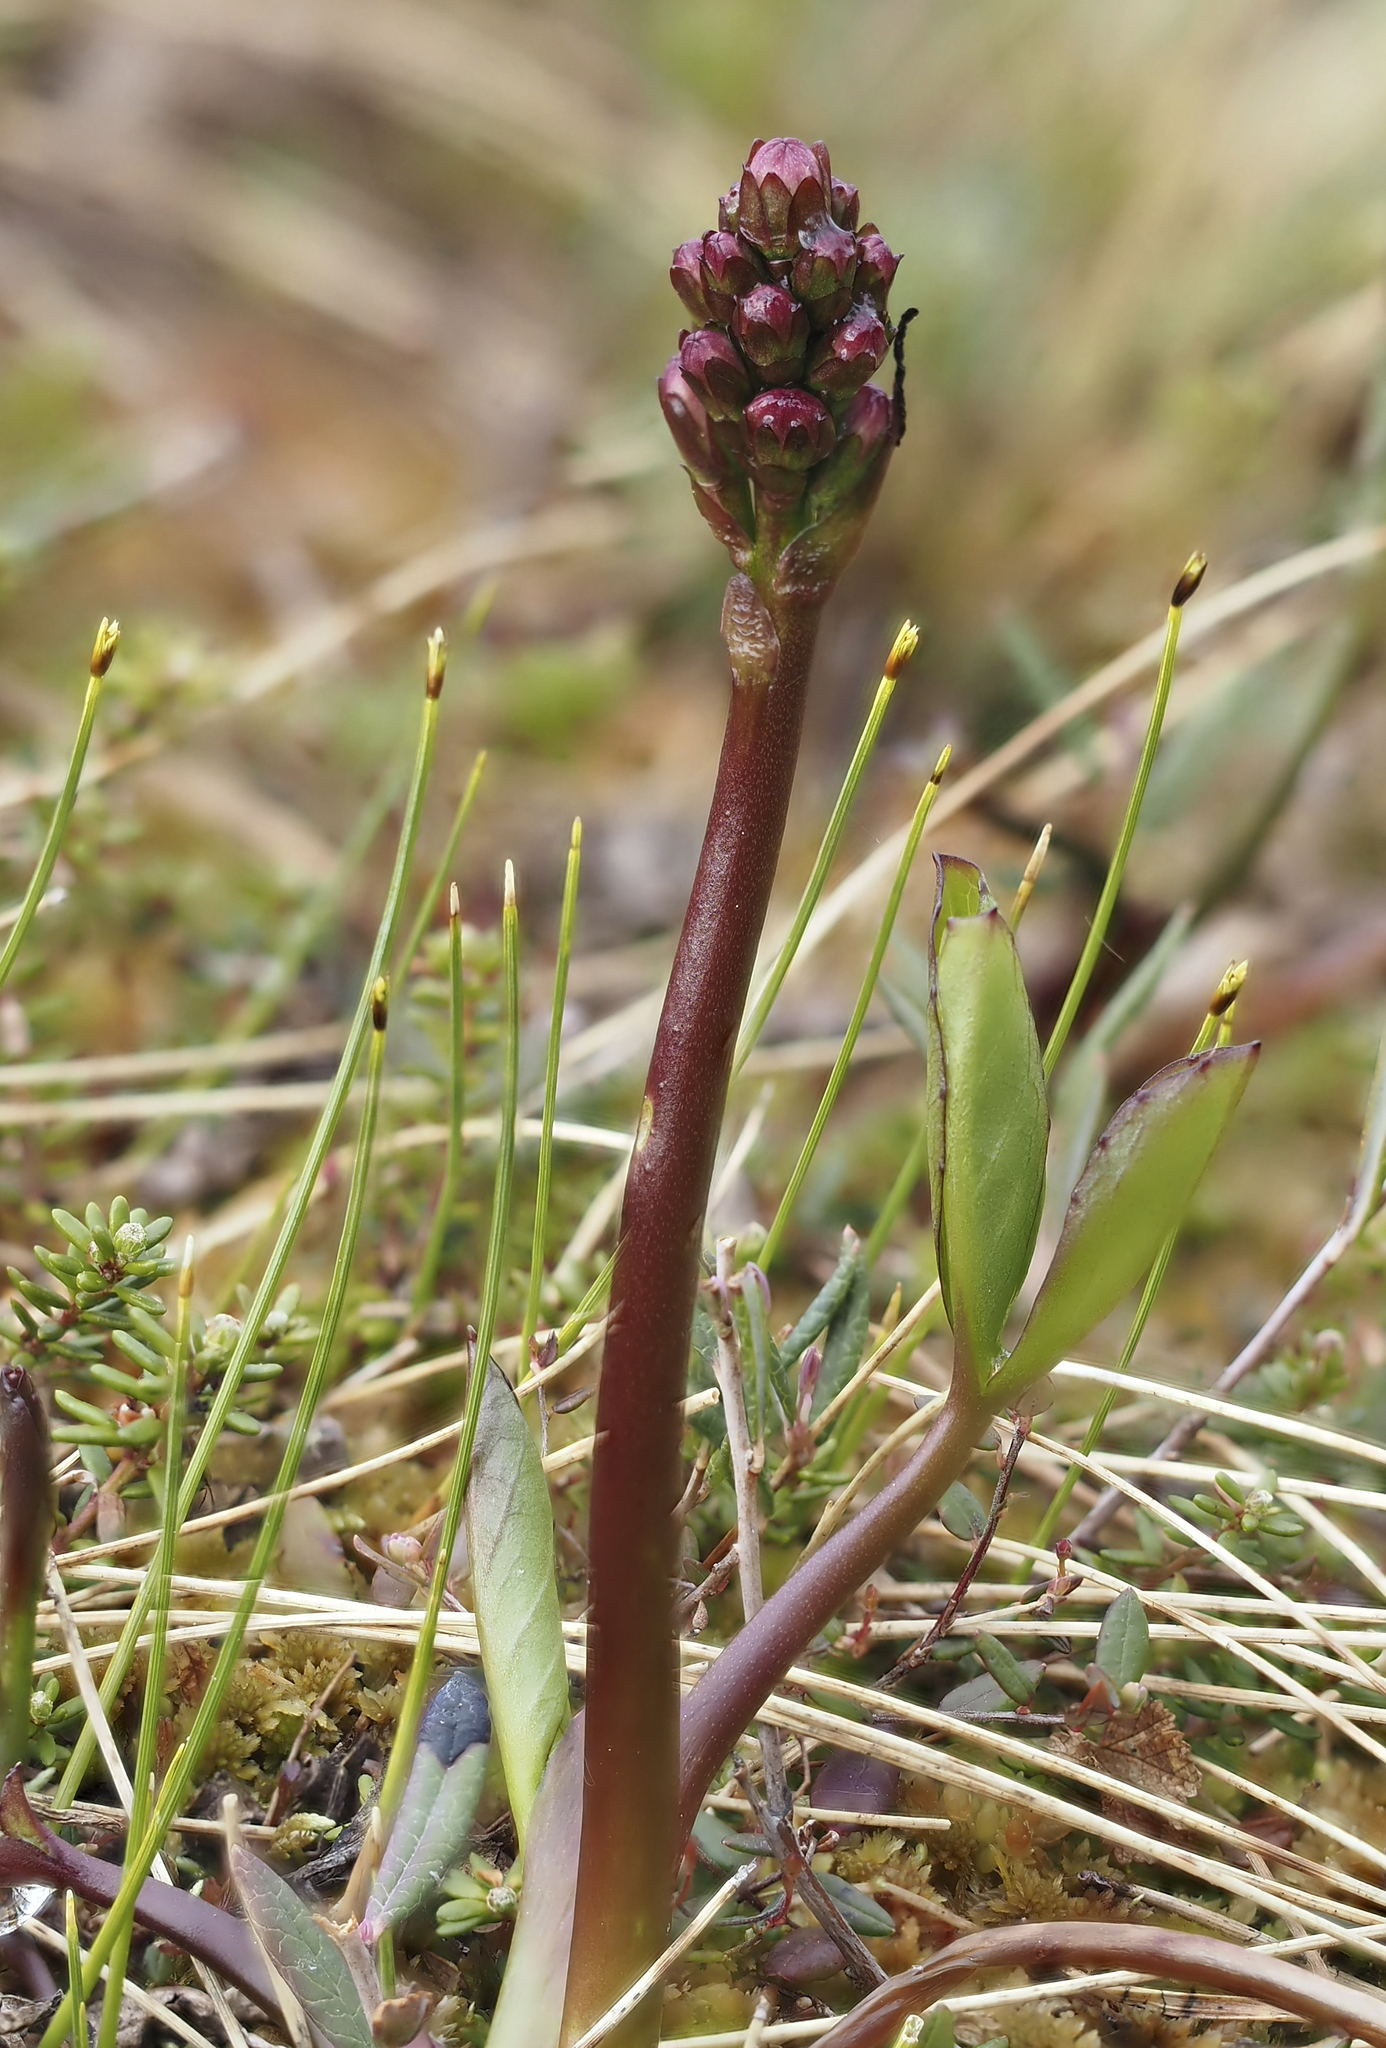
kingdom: Plantae
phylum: Tracheophyta
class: Magnoliopsida
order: Asterales
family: Menyanthaceae
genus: Menyanthes
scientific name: Menyanthes trifoliata
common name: Bogbean
